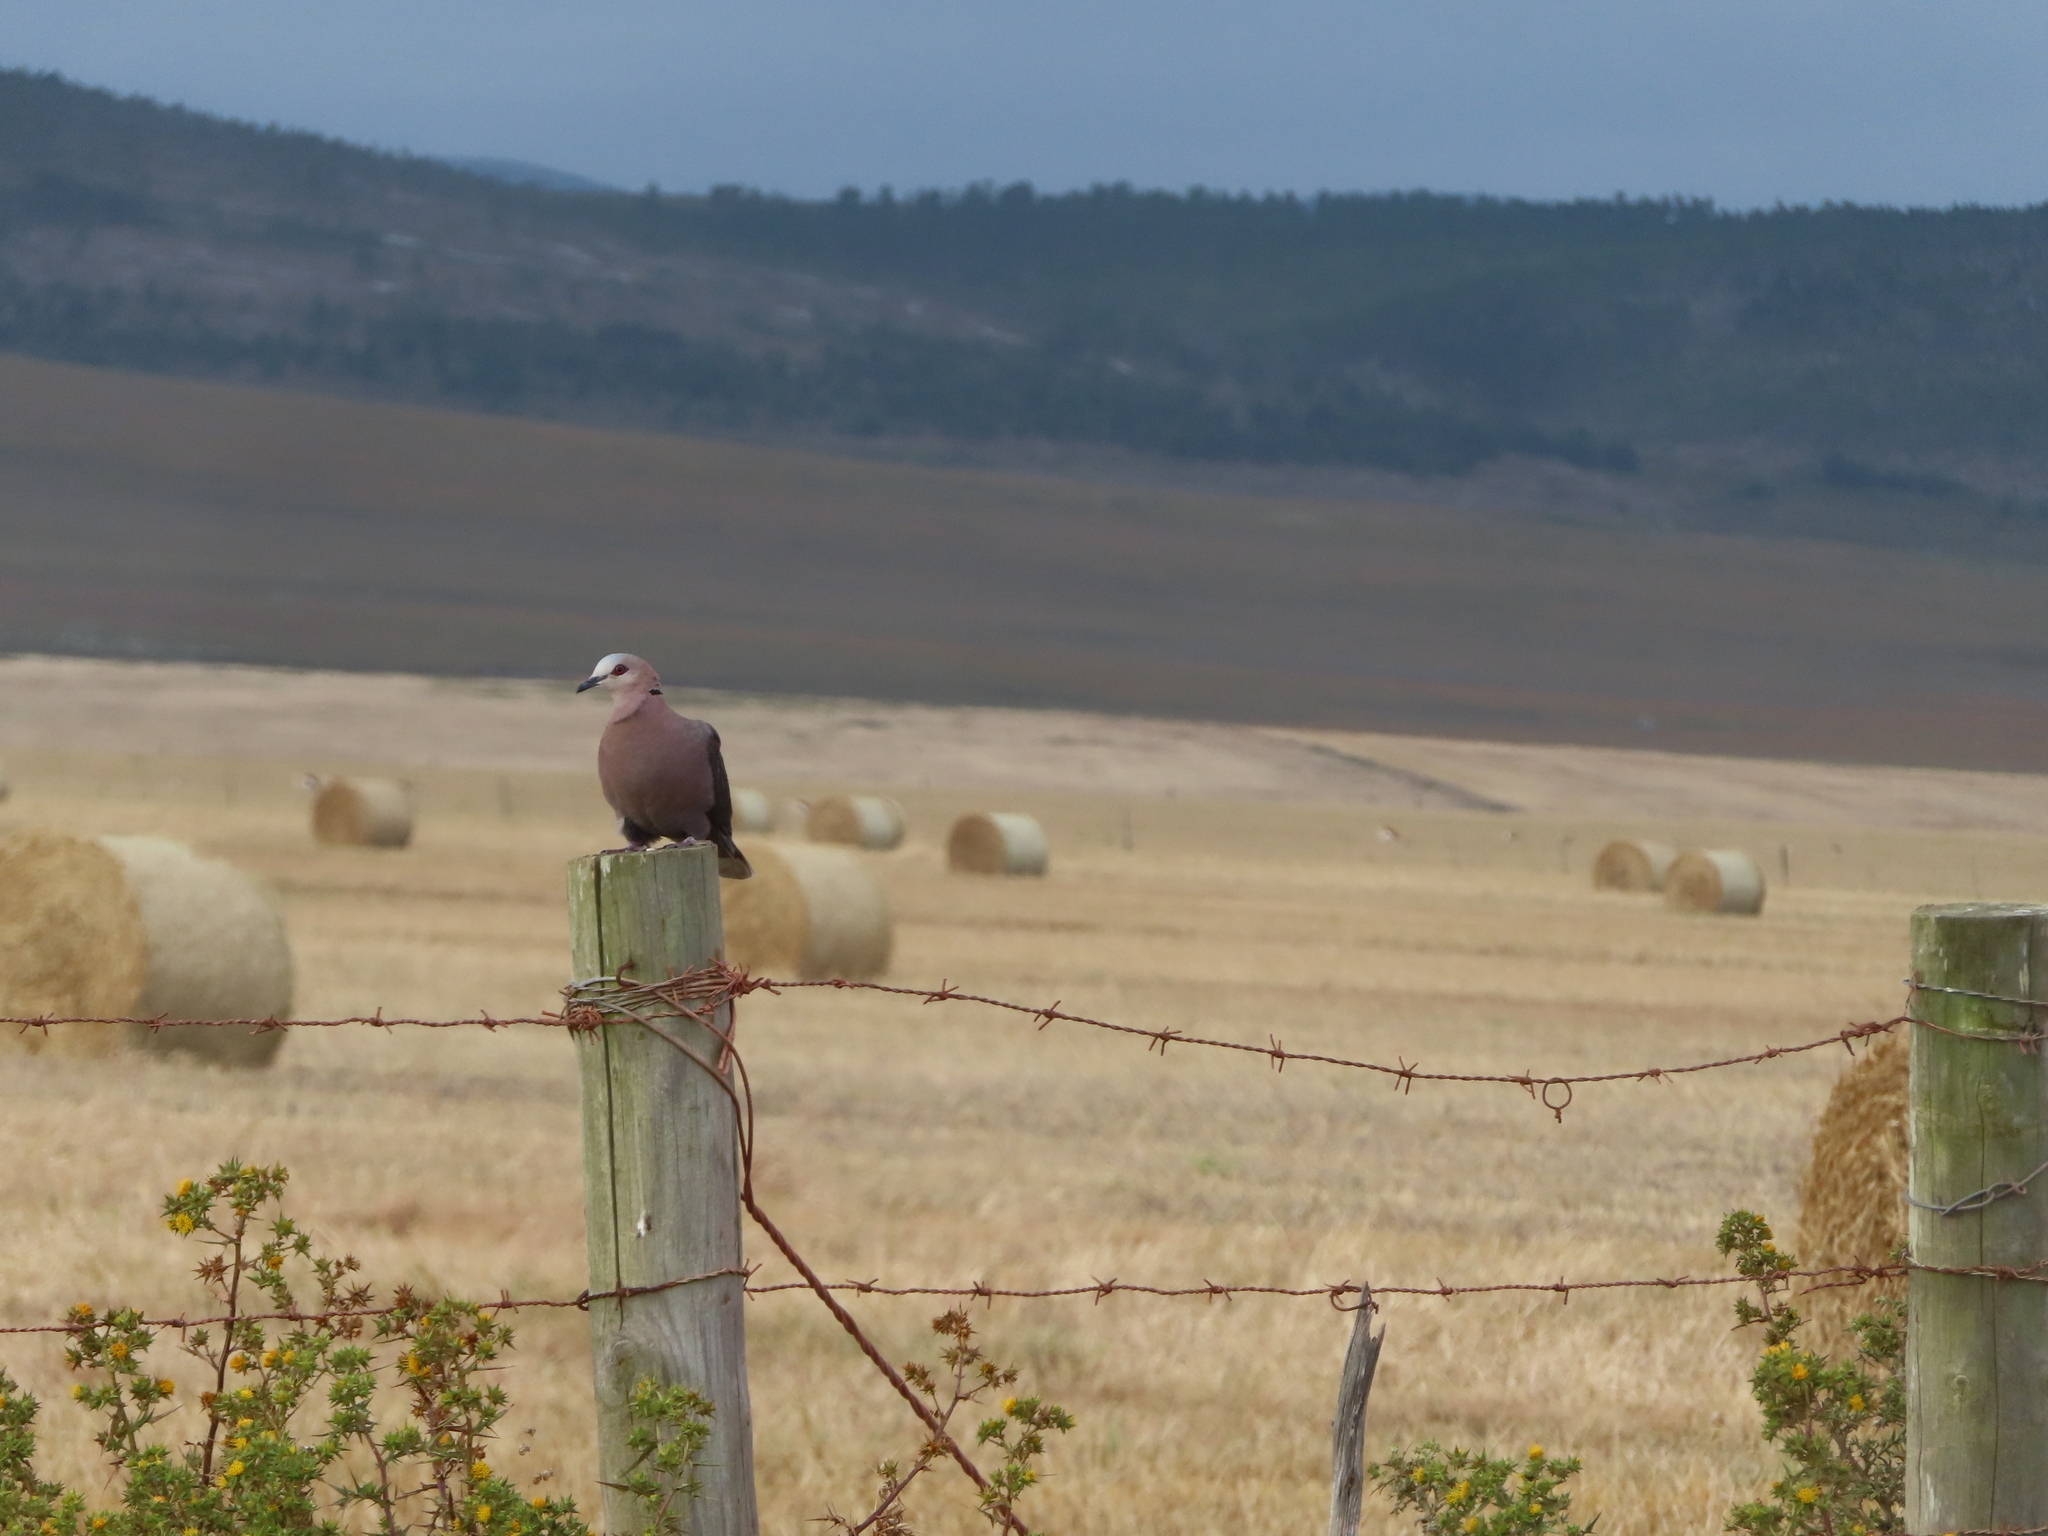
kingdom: Animalia
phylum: Chordata
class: Aves
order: Columbiformes
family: Columbidae
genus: Streptopelia
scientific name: Streptopelia semitorquata
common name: Red-eyed dove
